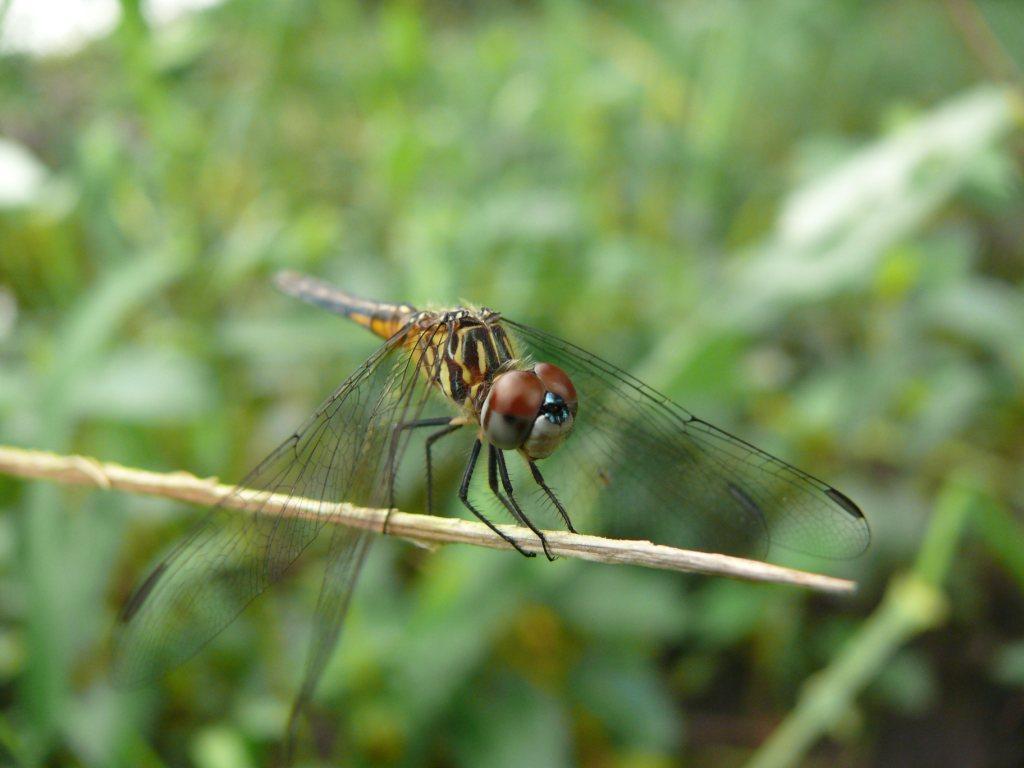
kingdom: Animalia
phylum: Arthropoda
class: Insecta
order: Odonata
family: Libellulidae
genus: Pachydiplax
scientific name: Pachydiplax longipennis
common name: Blue dasher
